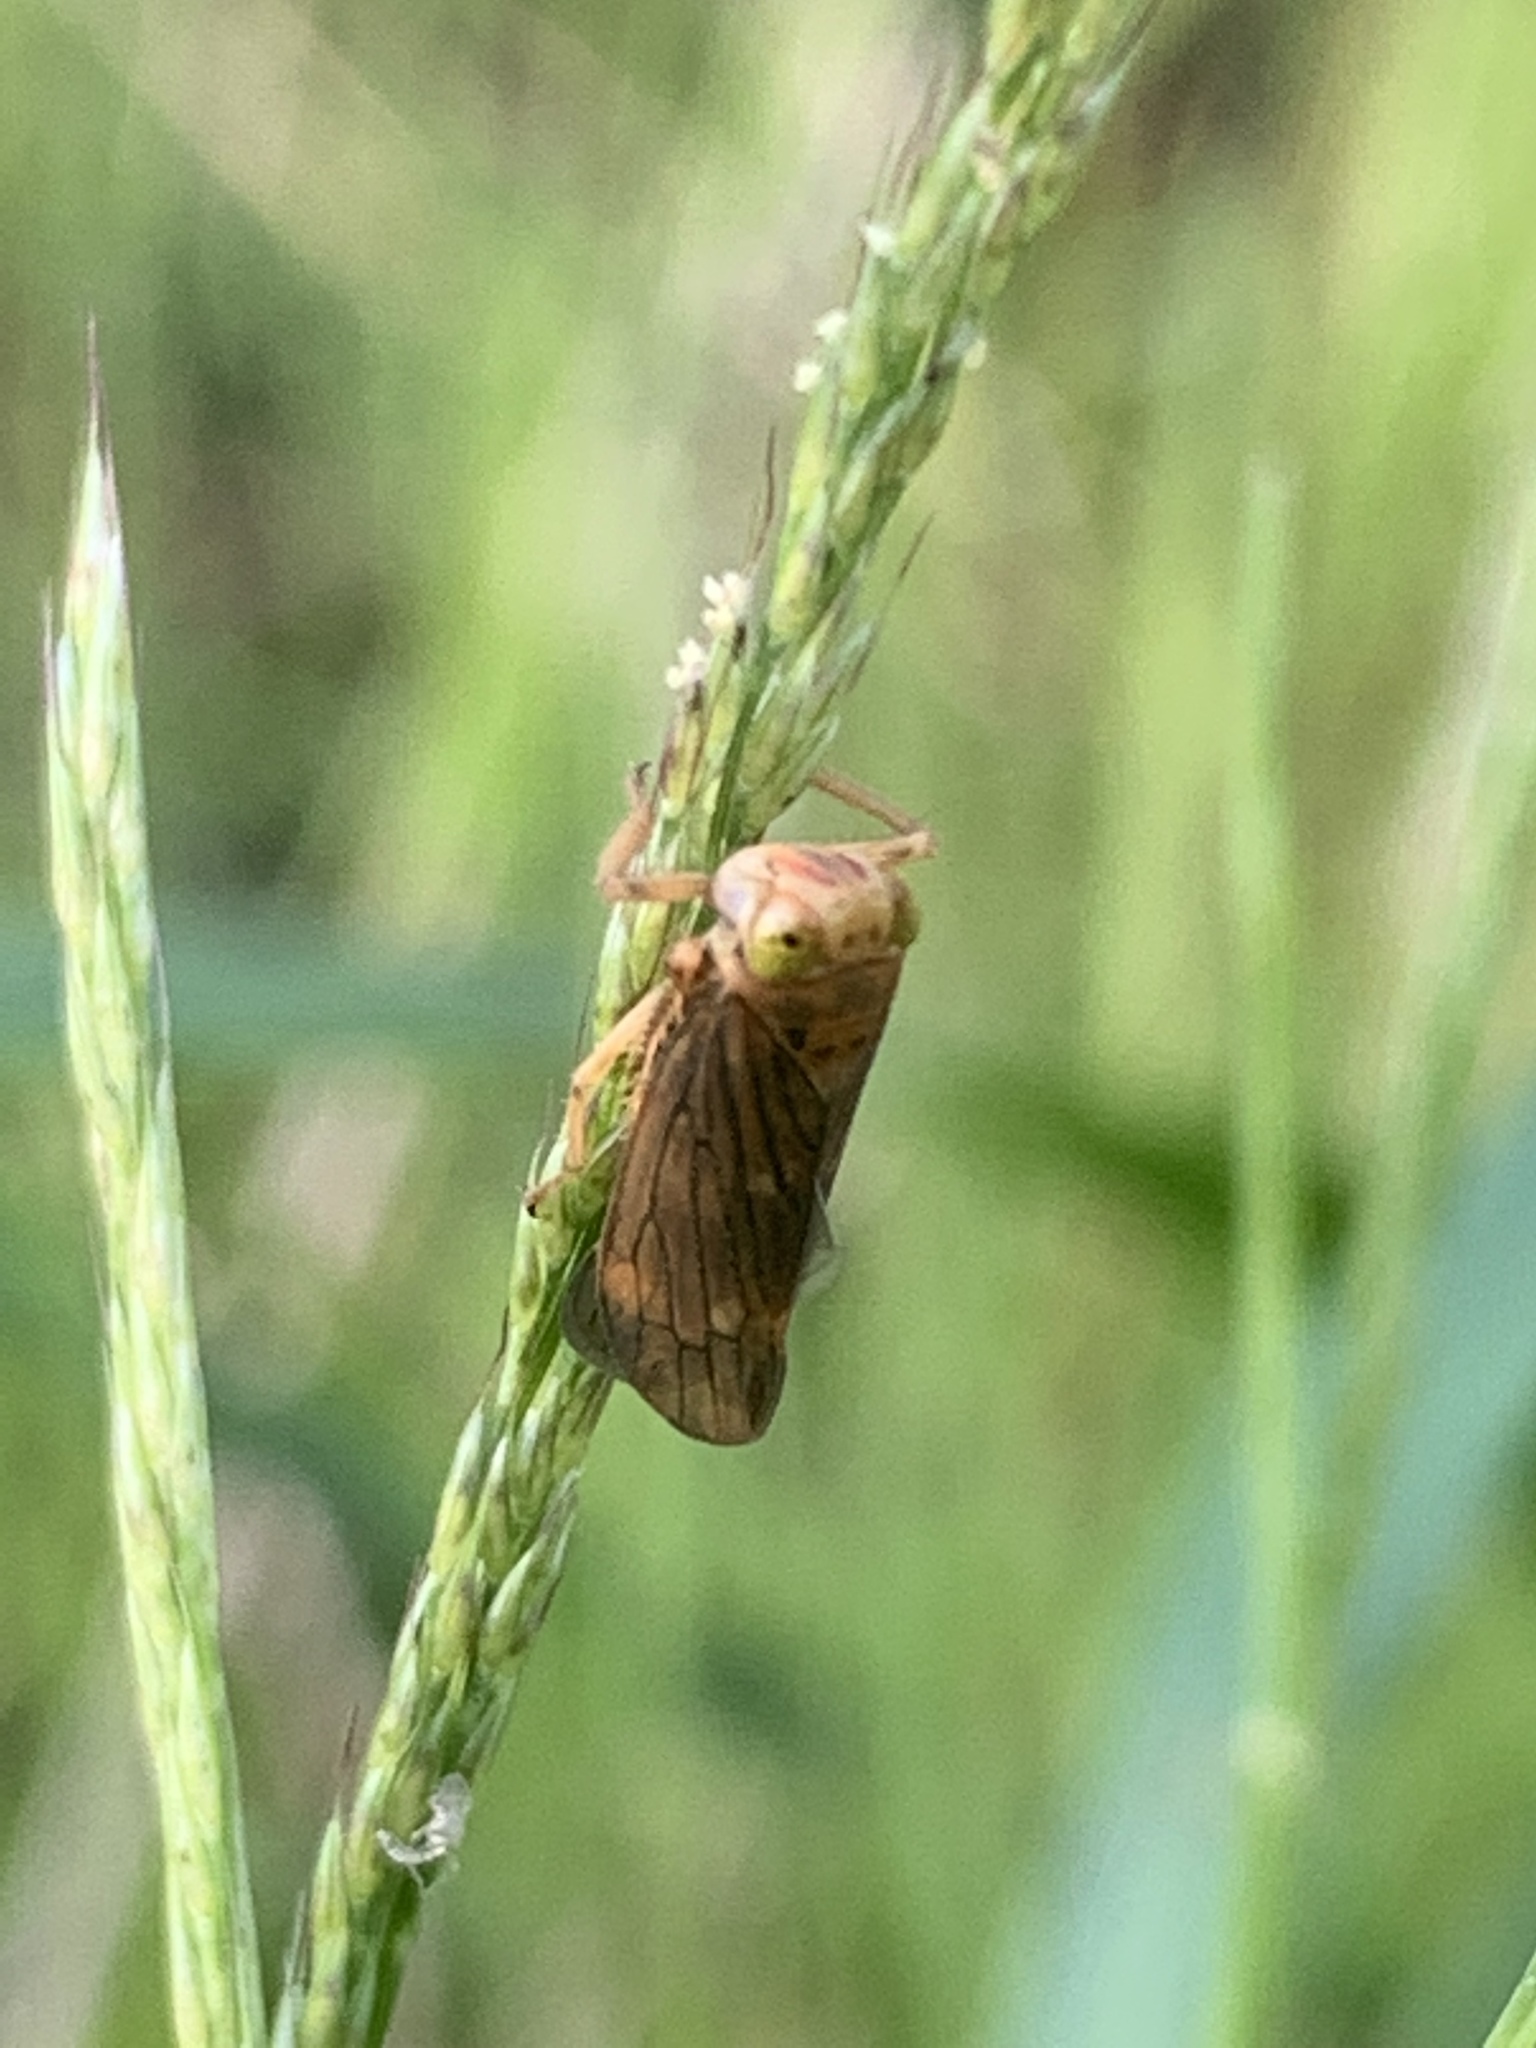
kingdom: Animalia
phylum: Arthropoda
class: Insecta
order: Hemiptera
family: Cicadellidae
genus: Jikradia
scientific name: Jikradia olitoria
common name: Coppery leafhopper
